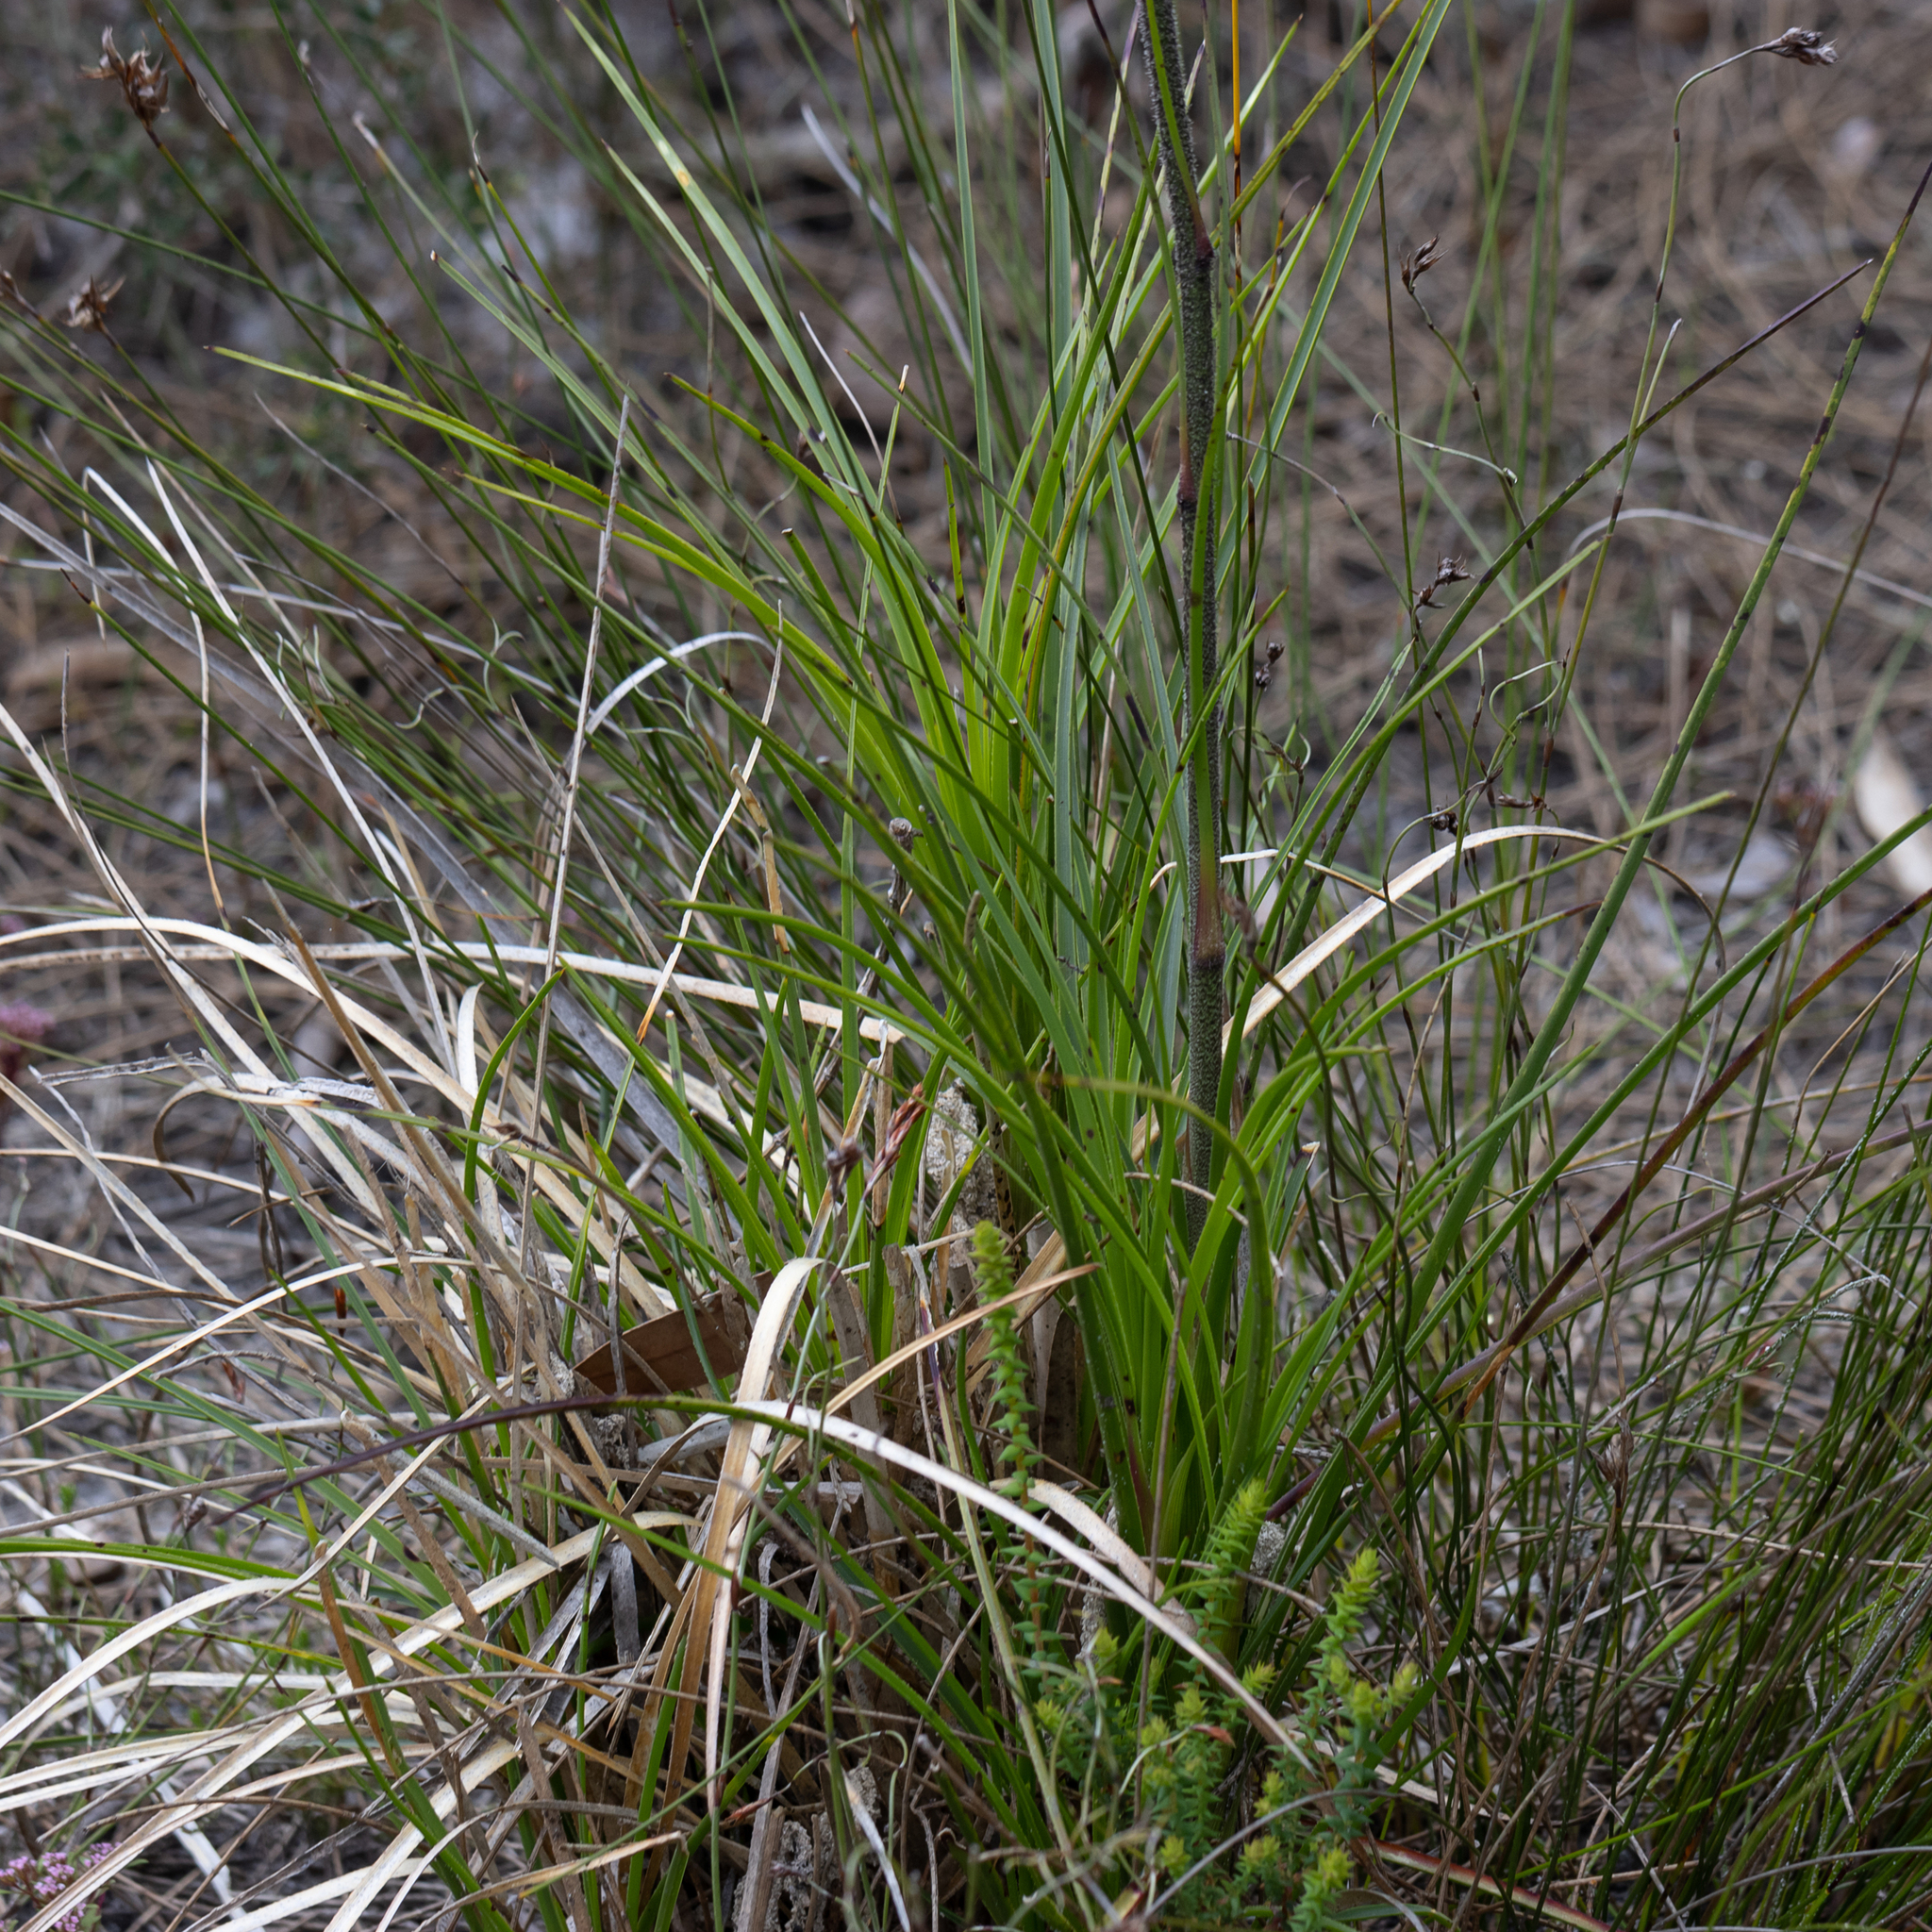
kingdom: Plantae
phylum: Tracheophyta
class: Liliopsida
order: Arecales
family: Dasypogonaceae
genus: Dasypogon
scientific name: Dasypogon bromeliifolius
